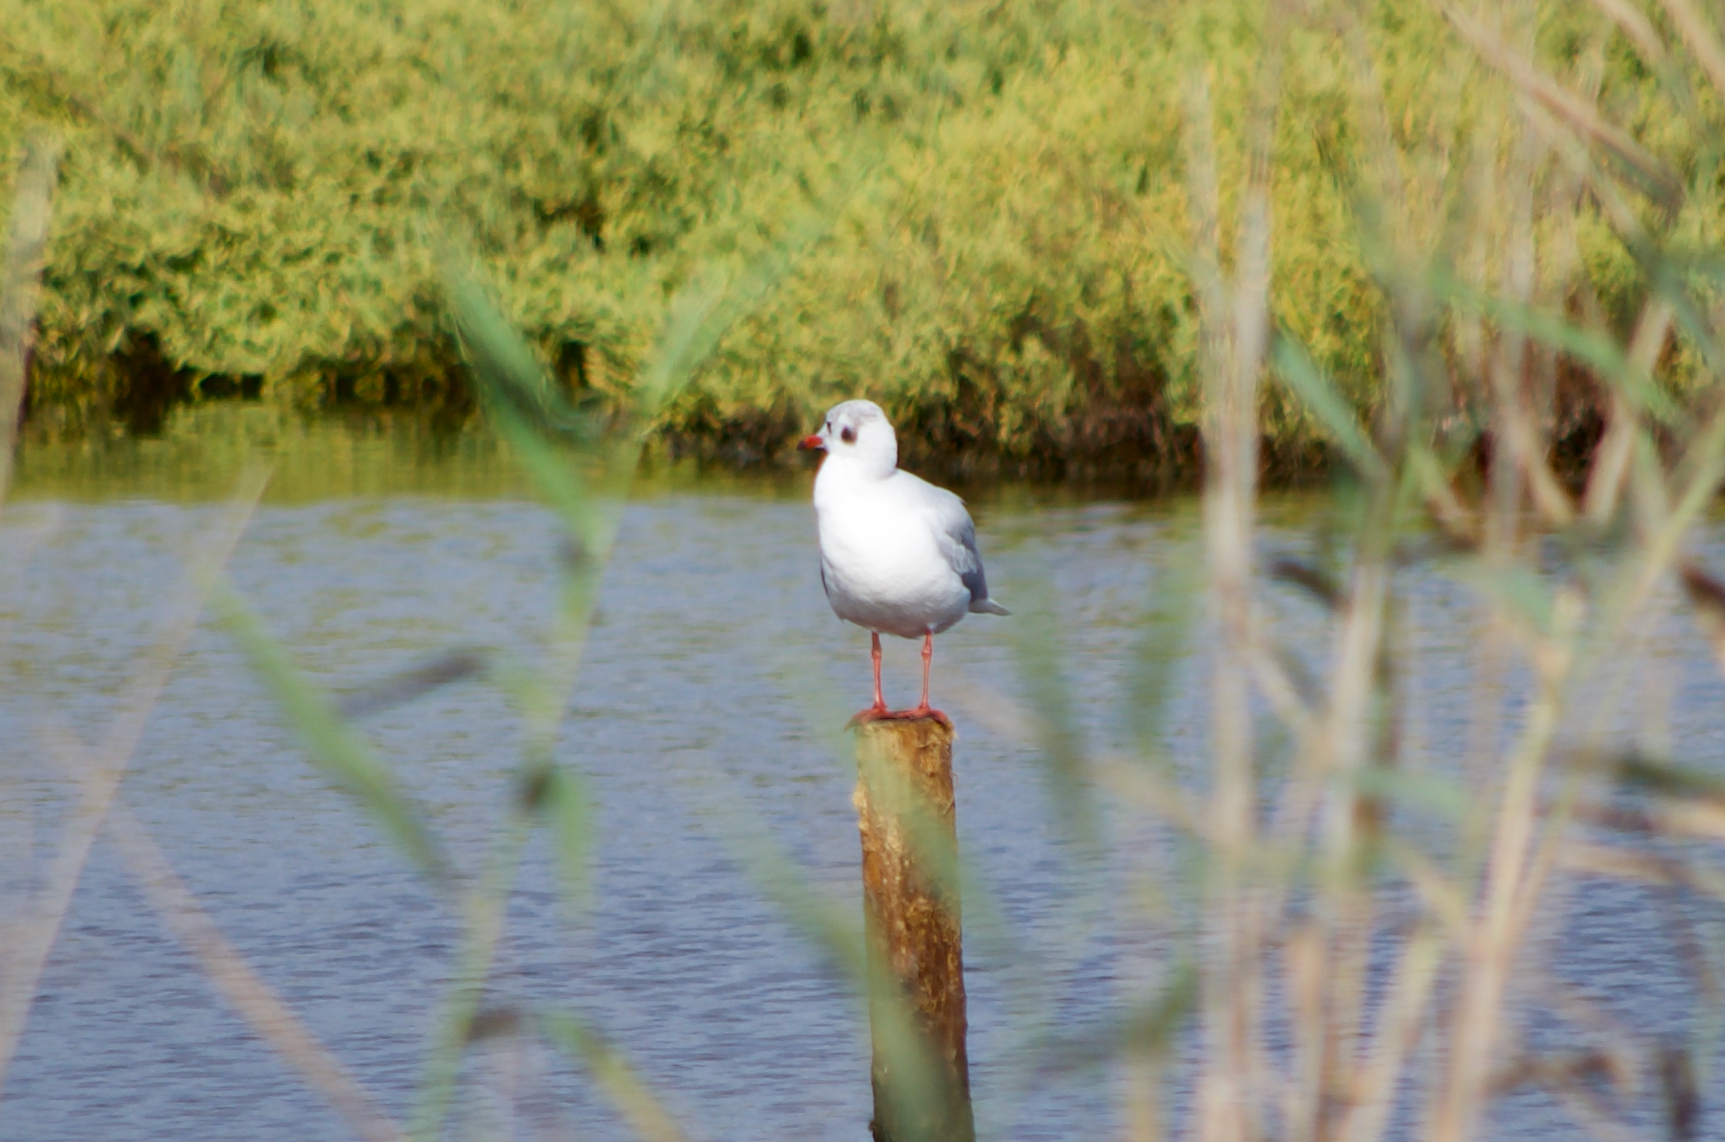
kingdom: Animalia
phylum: Chordata
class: Aves
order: Charadriiformes
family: Laridae
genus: Chroicocephalus
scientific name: Chroicocephalus ridibundus
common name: Black-headed gull
